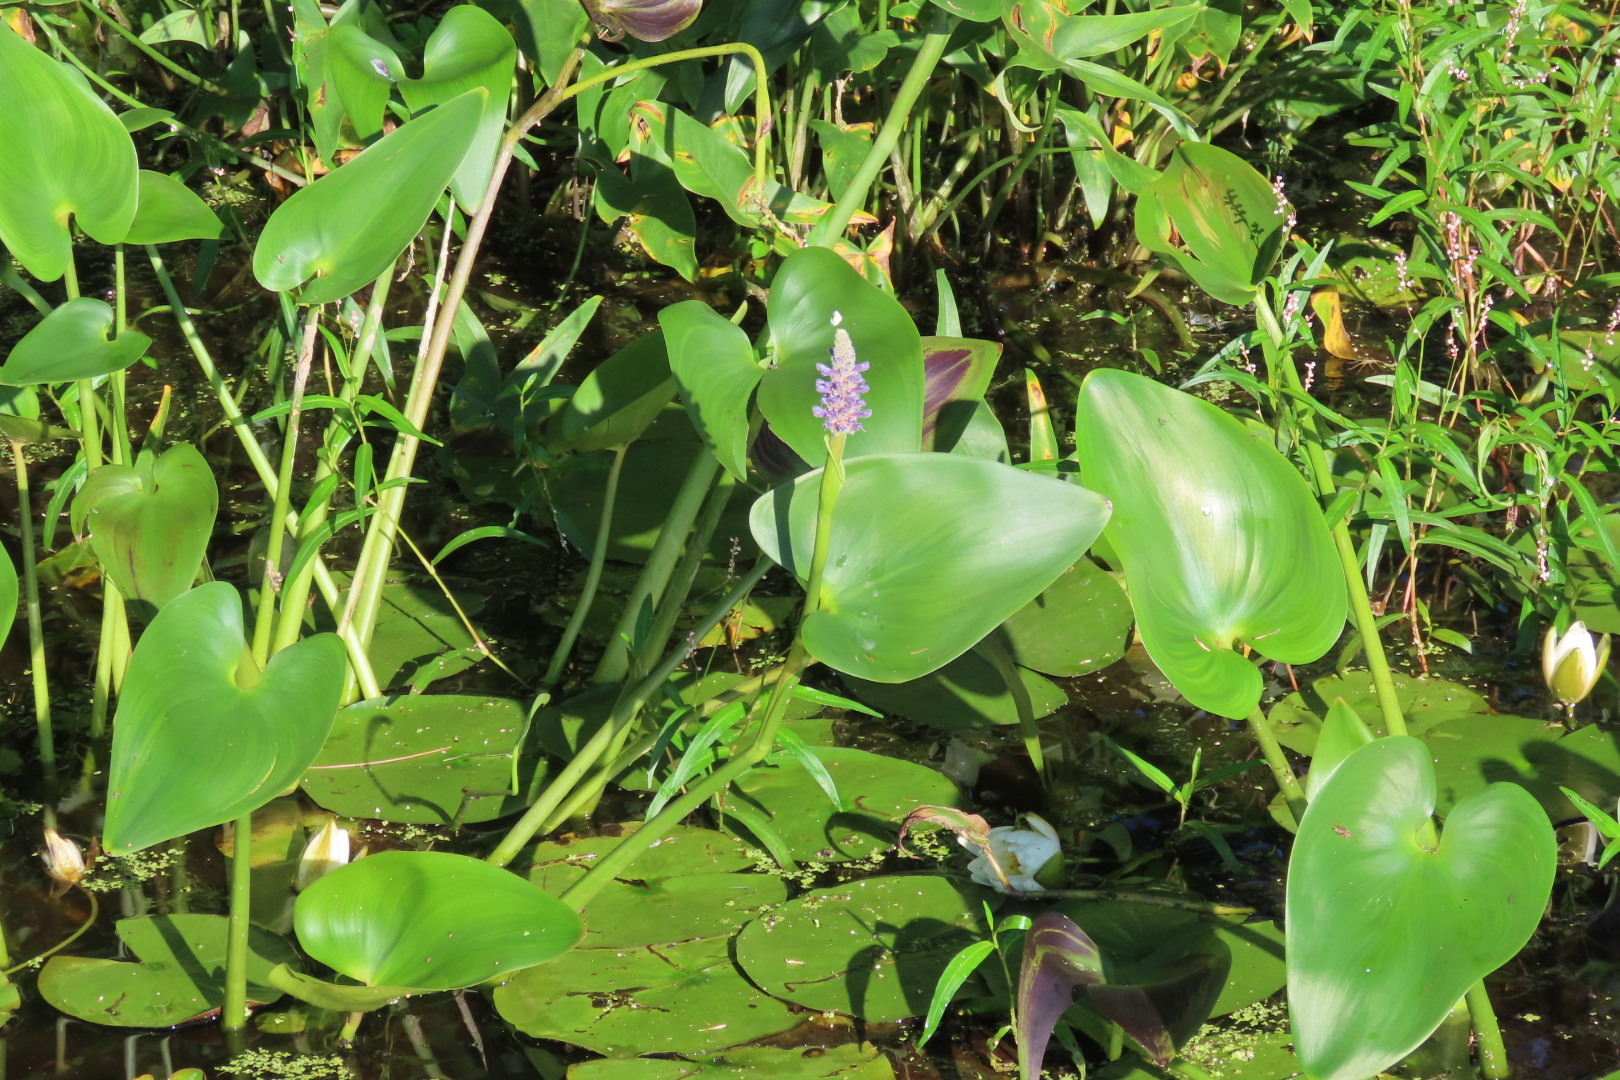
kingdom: Plantae
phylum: Tracheophyta
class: Liliopsida
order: Commelinales
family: Pontederiaceae
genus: Pontederia
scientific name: Pontederia cordata
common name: Pickerelweed
